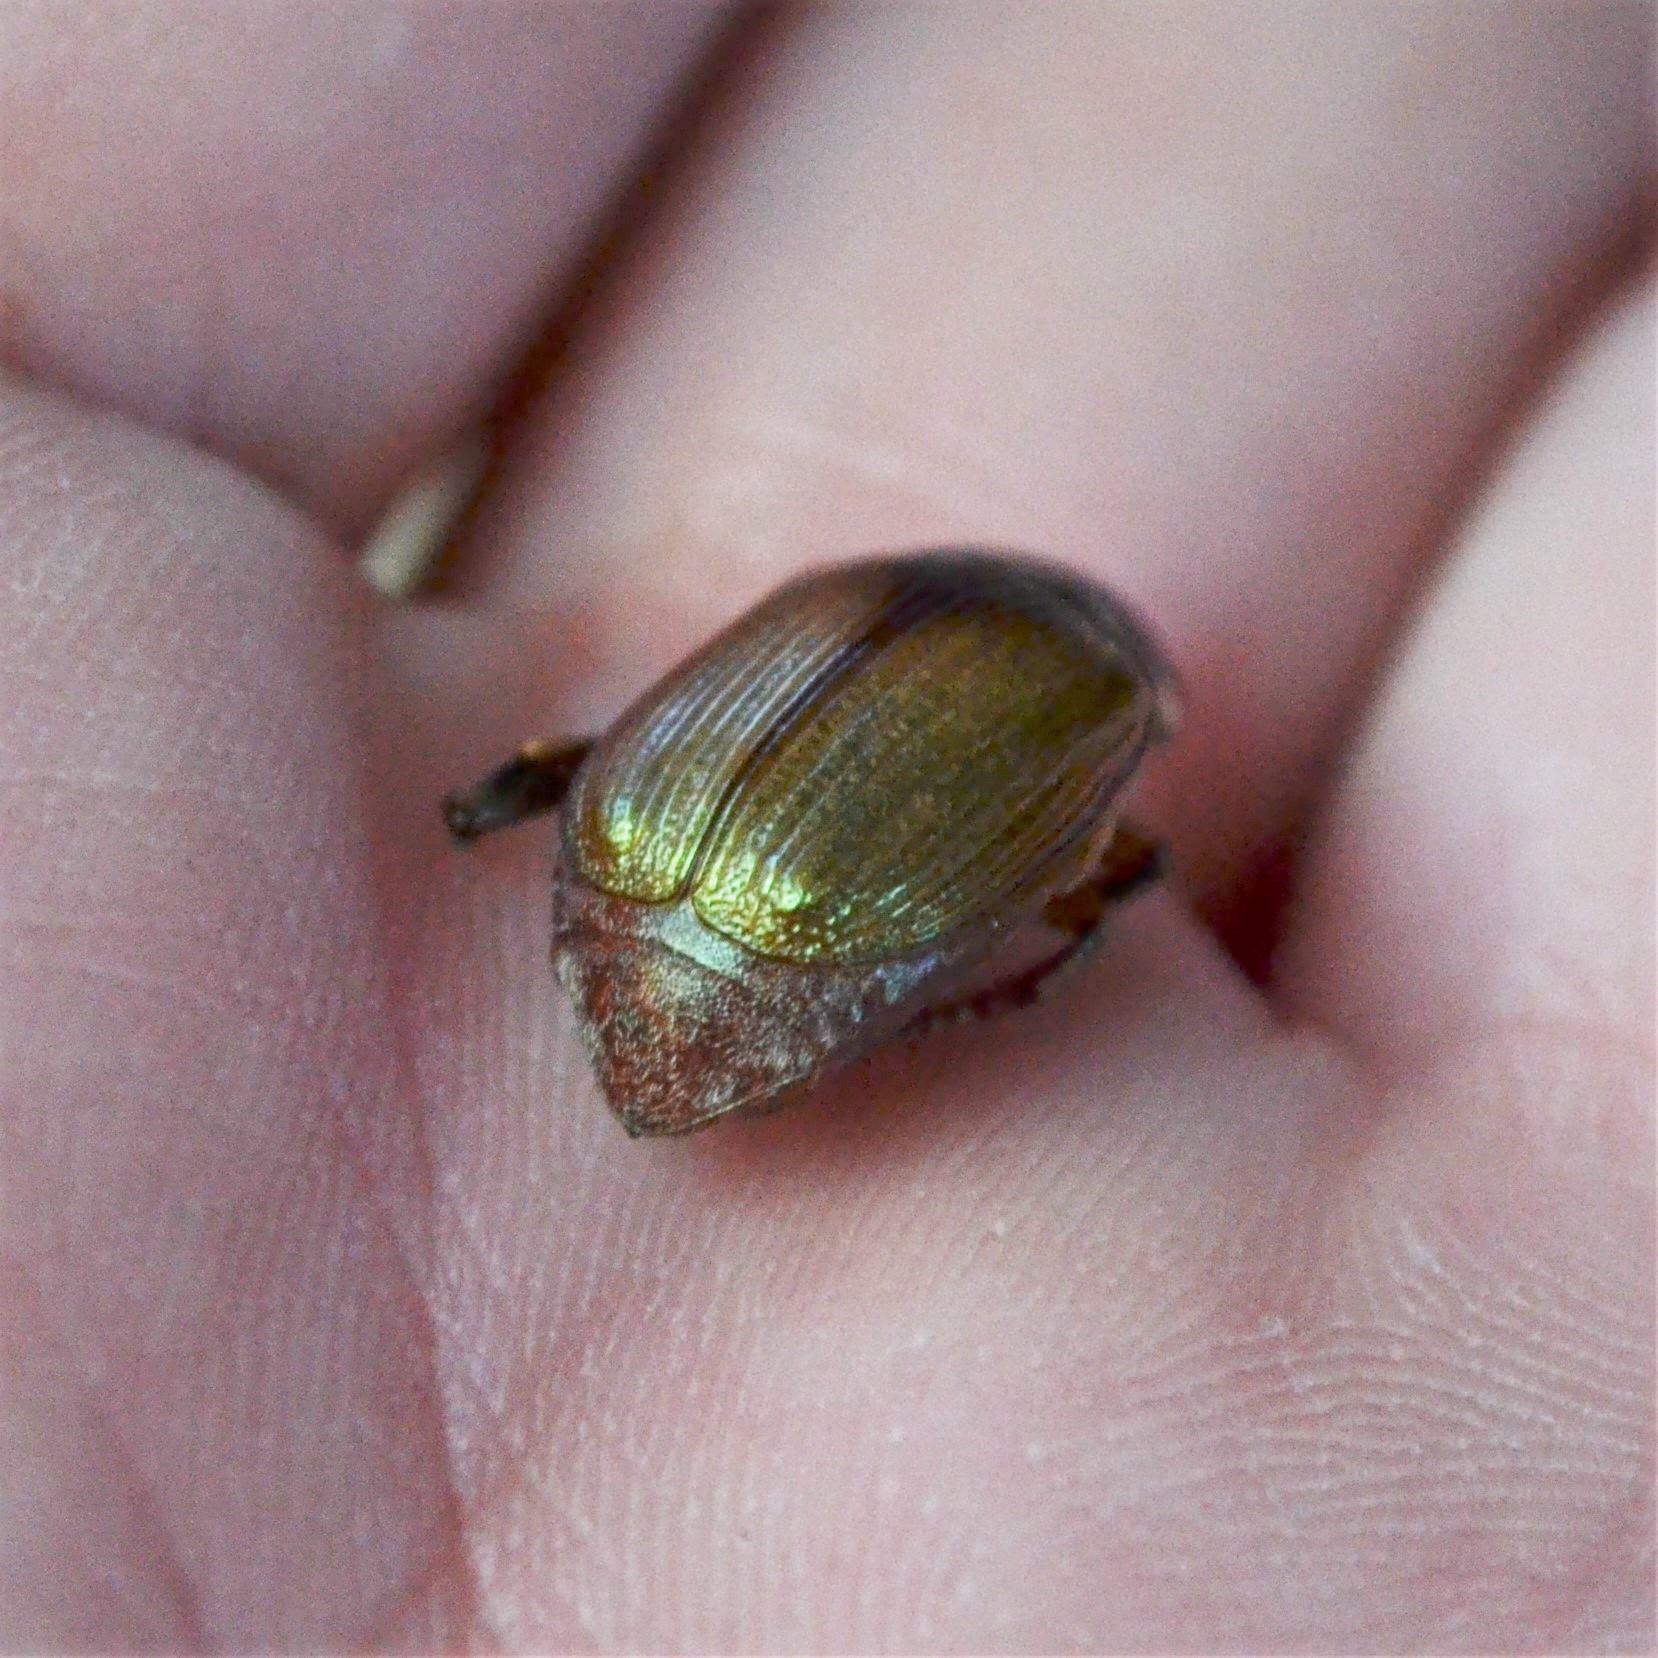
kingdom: Animalia
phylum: Arthropoda
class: Insecta
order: Coleoptera
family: Scarabaeidae
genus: Callistethus
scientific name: Callistethus marginatus
